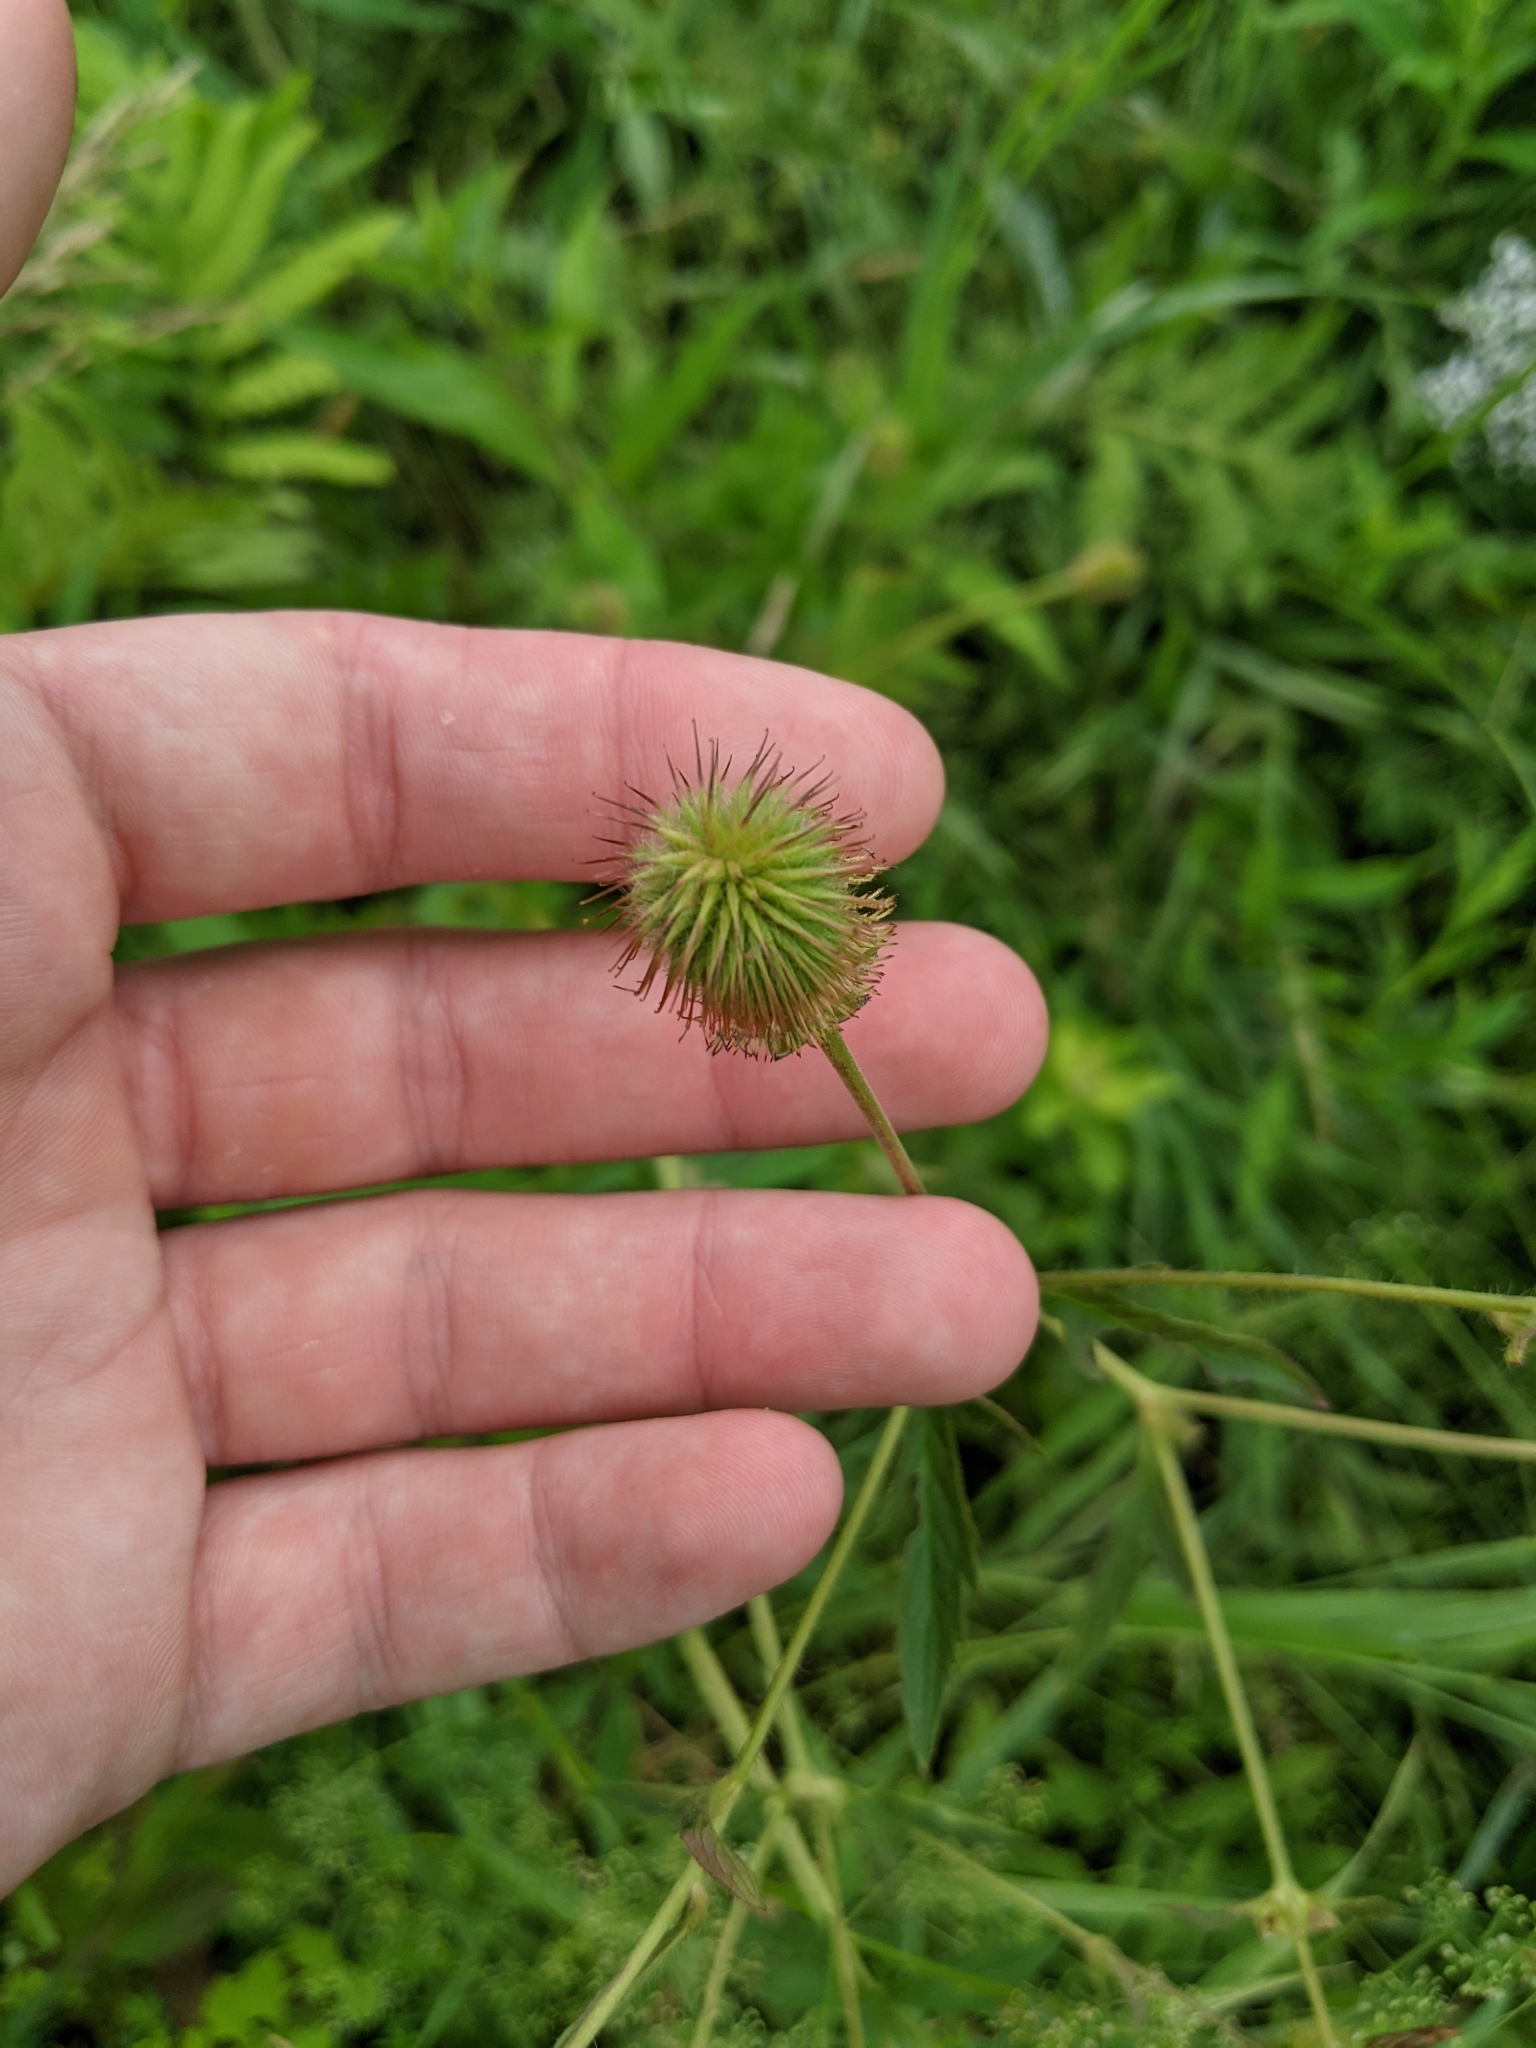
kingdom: Plantae
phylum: Tracheophyta
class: Magnoliopsida
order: Rosales
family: Rosaceae
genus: Geum
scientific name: Geum aleppicum
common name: Yellow avens
